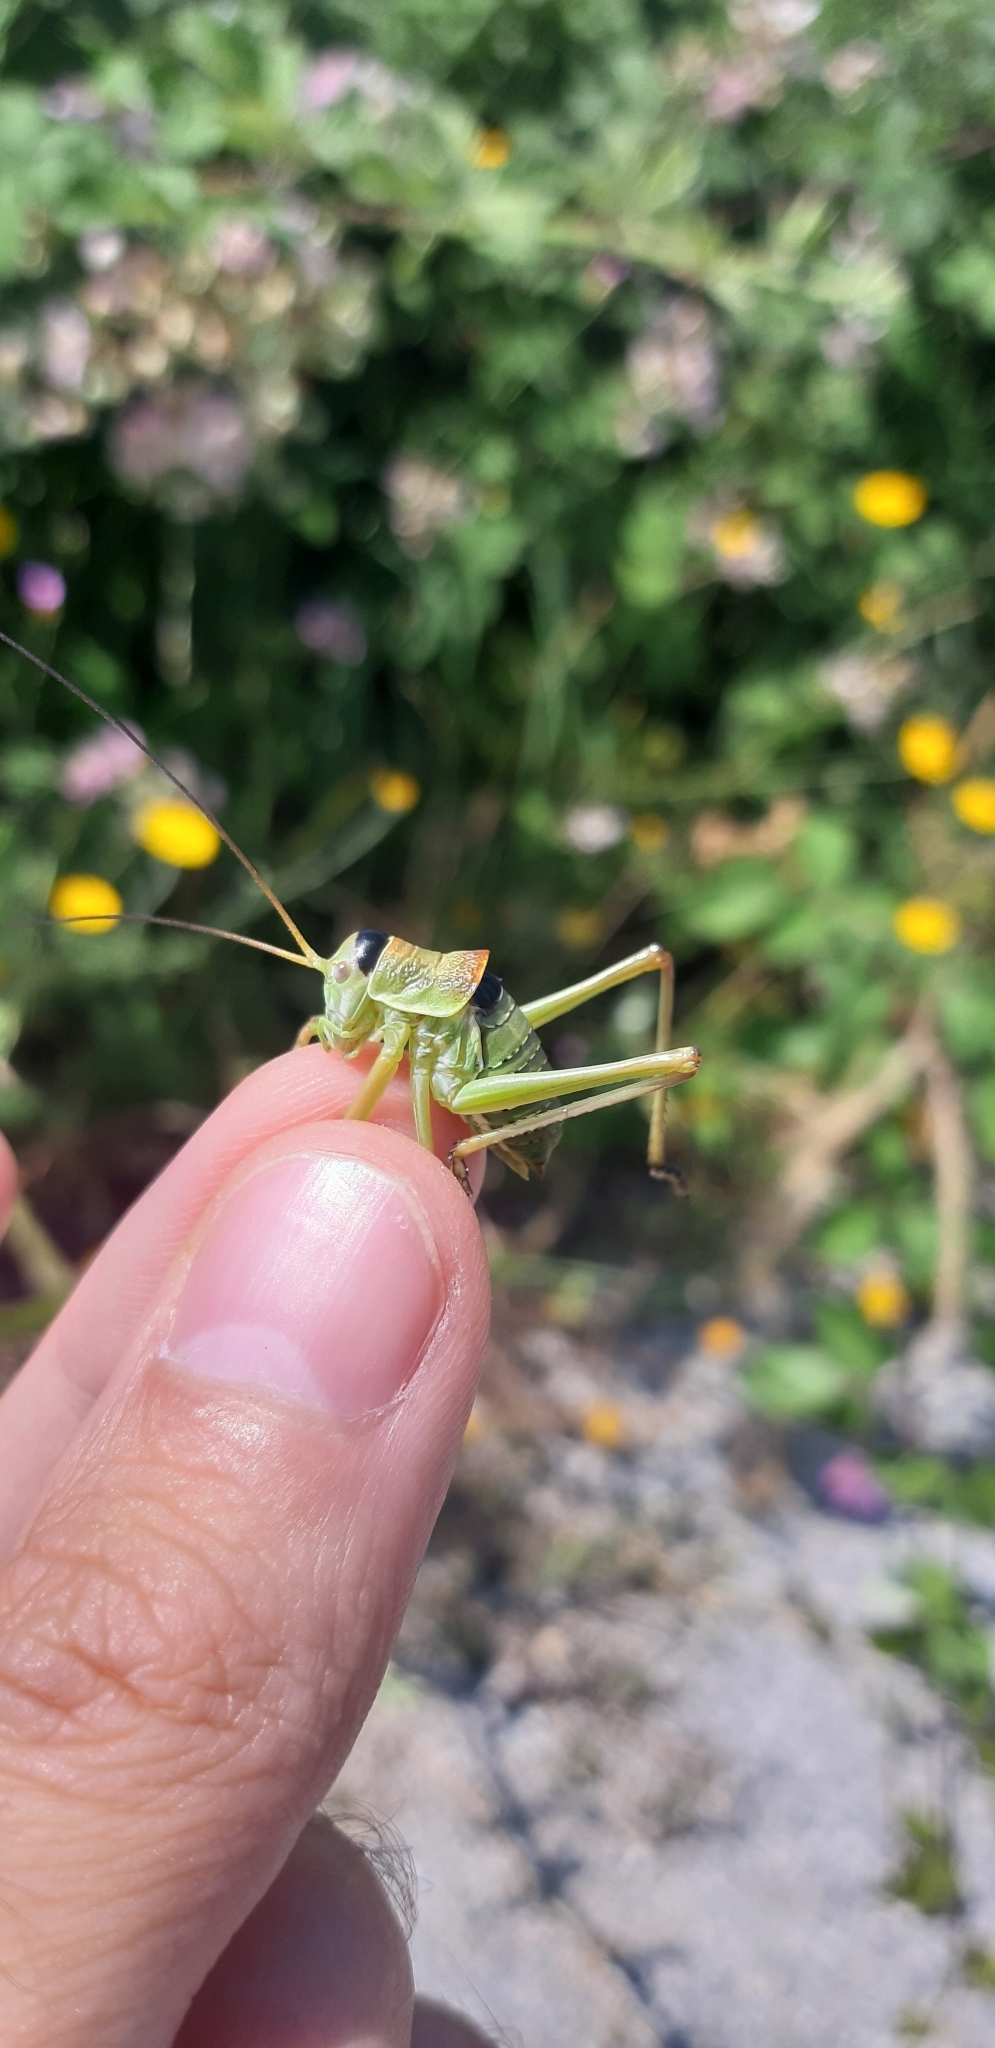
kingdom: Animalia
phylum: Arthropoda
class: Insecta
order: Orthoptera
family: Tettigoniidae
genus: Ephippiger
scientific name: Ephippiger apulus
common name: Apulian saddle bush-cricket
